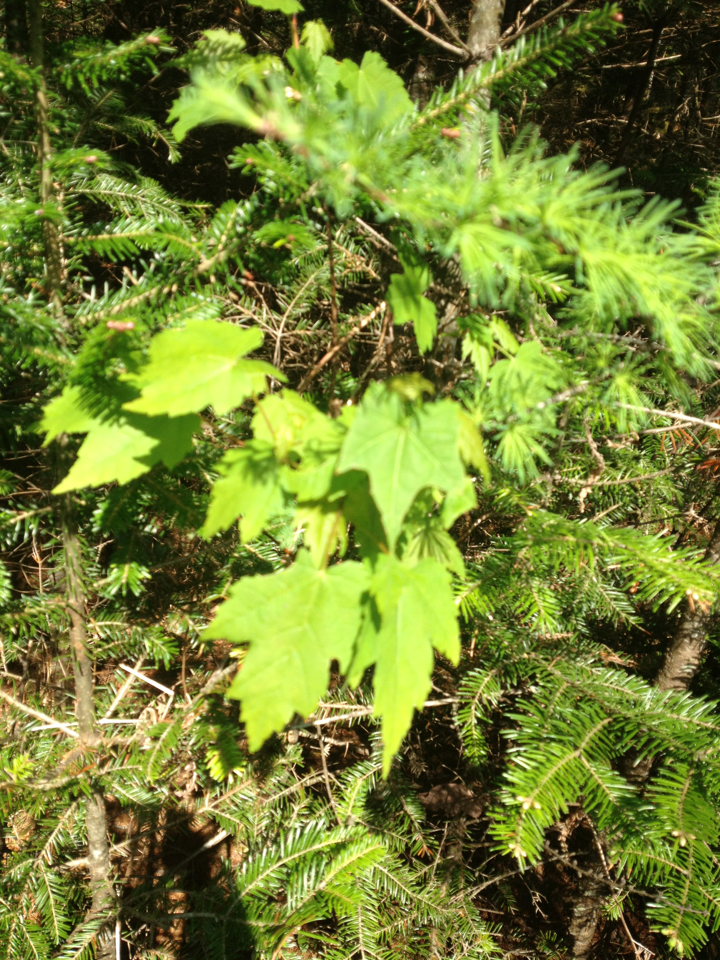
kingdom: Plantae
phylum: Tracheophyta
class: Magnoliopsida
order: Sapindales
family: Sapindaceae
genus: Acer
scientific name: Acer rubrum
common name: Red maple
